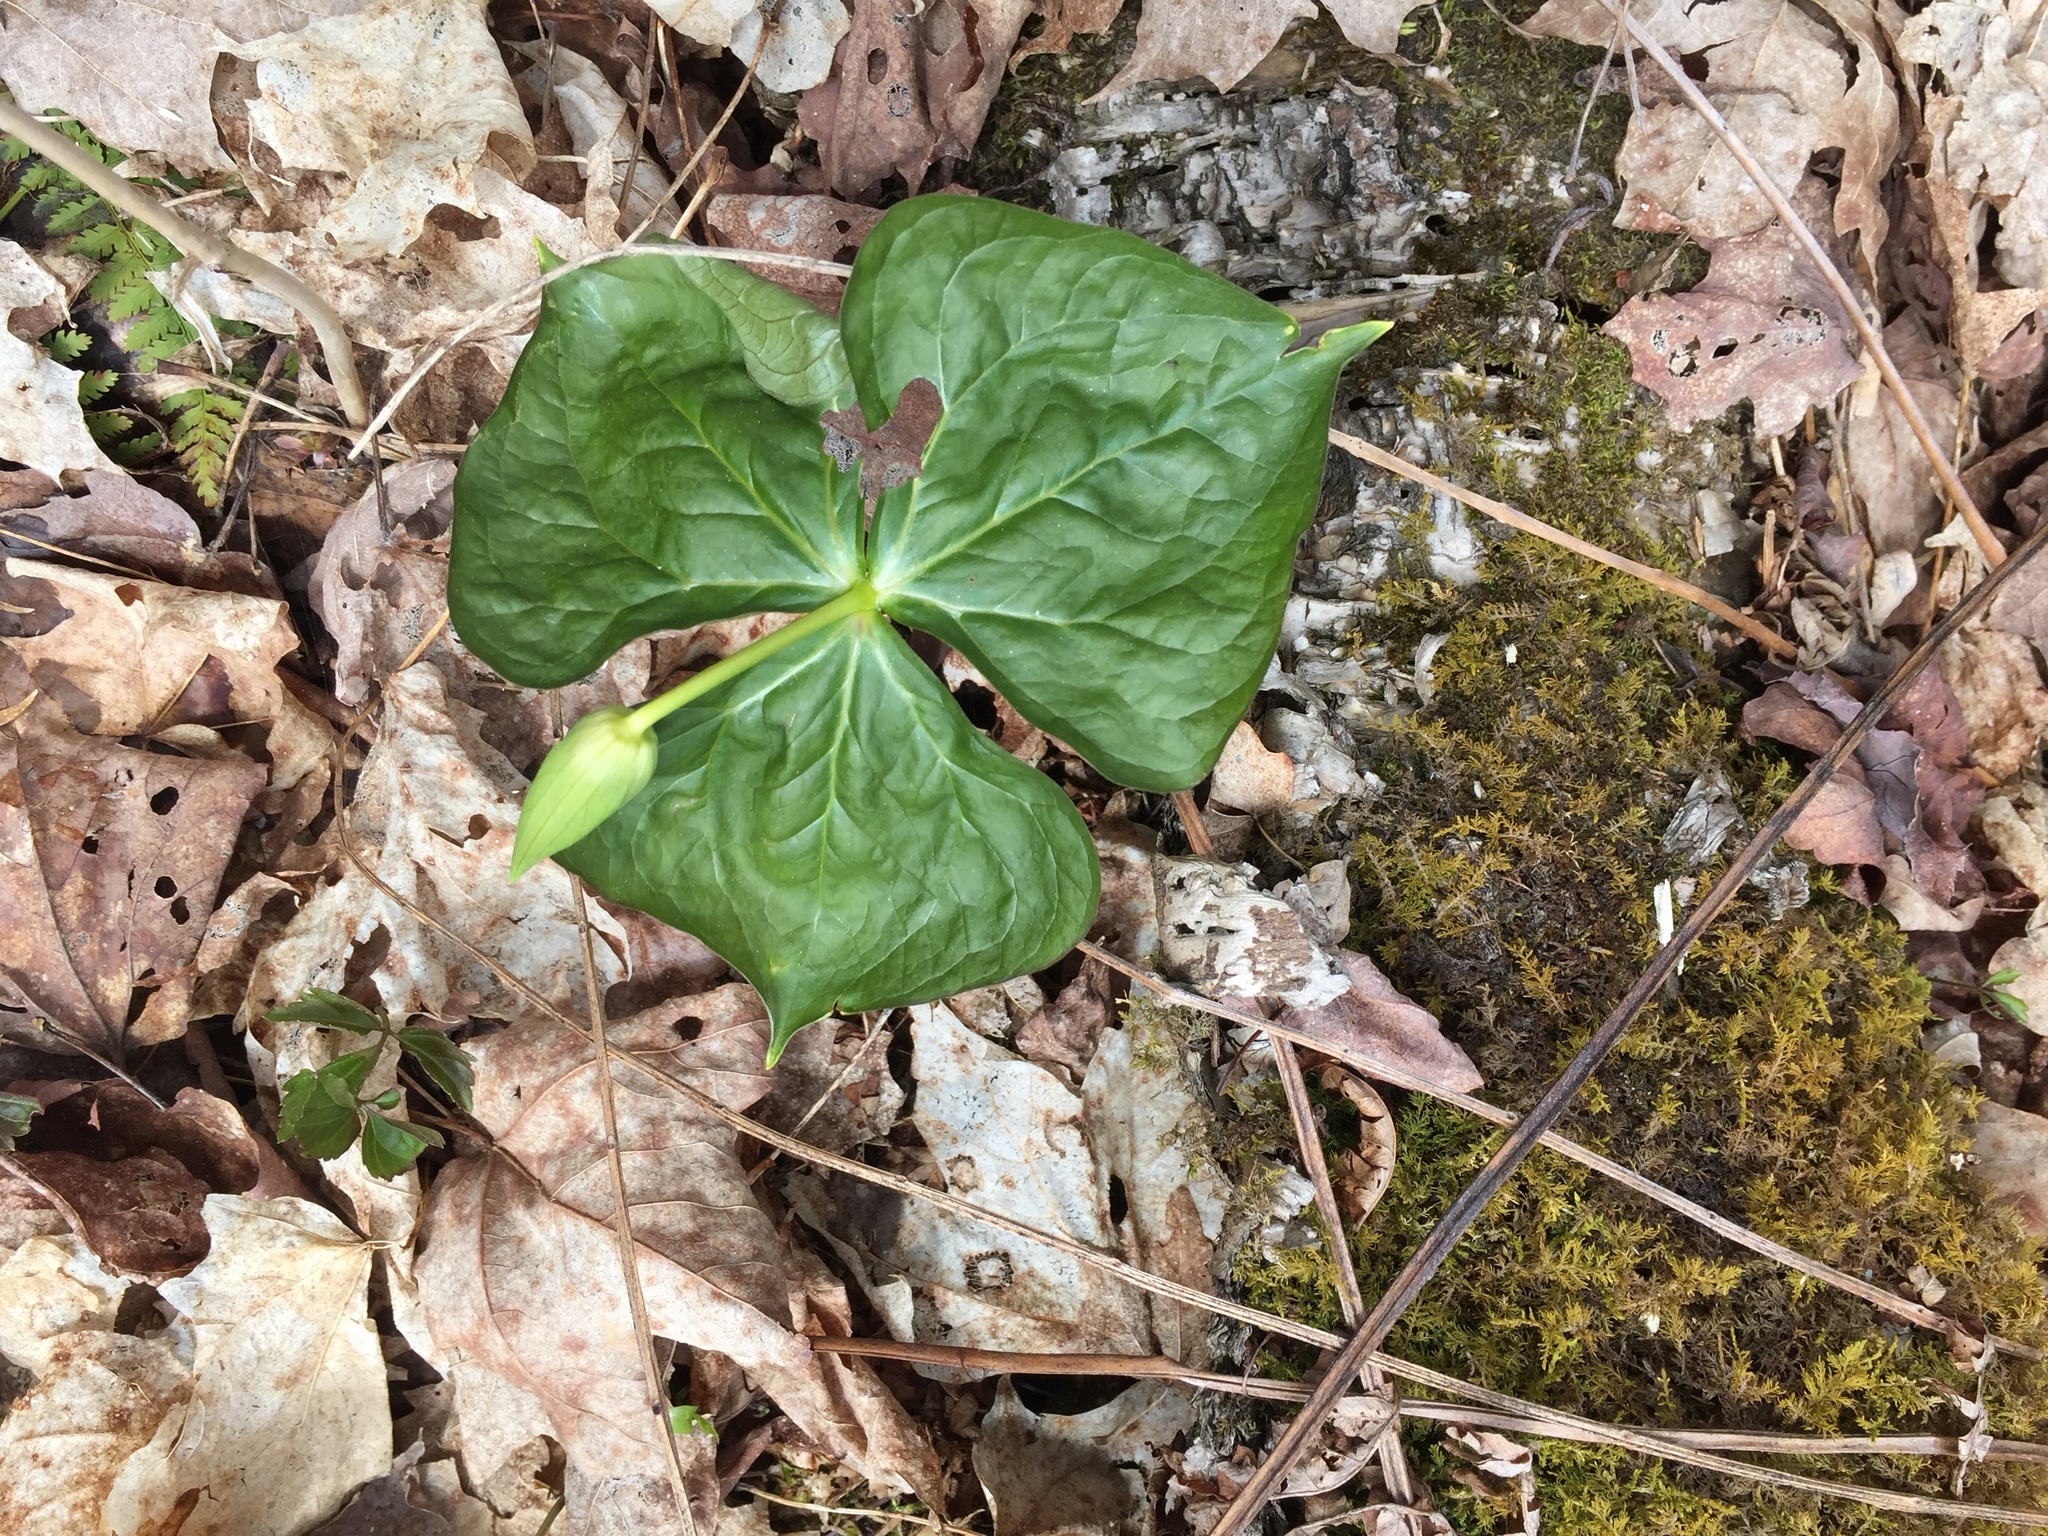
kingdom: Plantae
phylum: Tracheophyta
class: Liliopsida
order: Liliales
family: Melanthiaceae
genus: Trillium
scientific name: Trillium erectum
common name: Purple trillium
